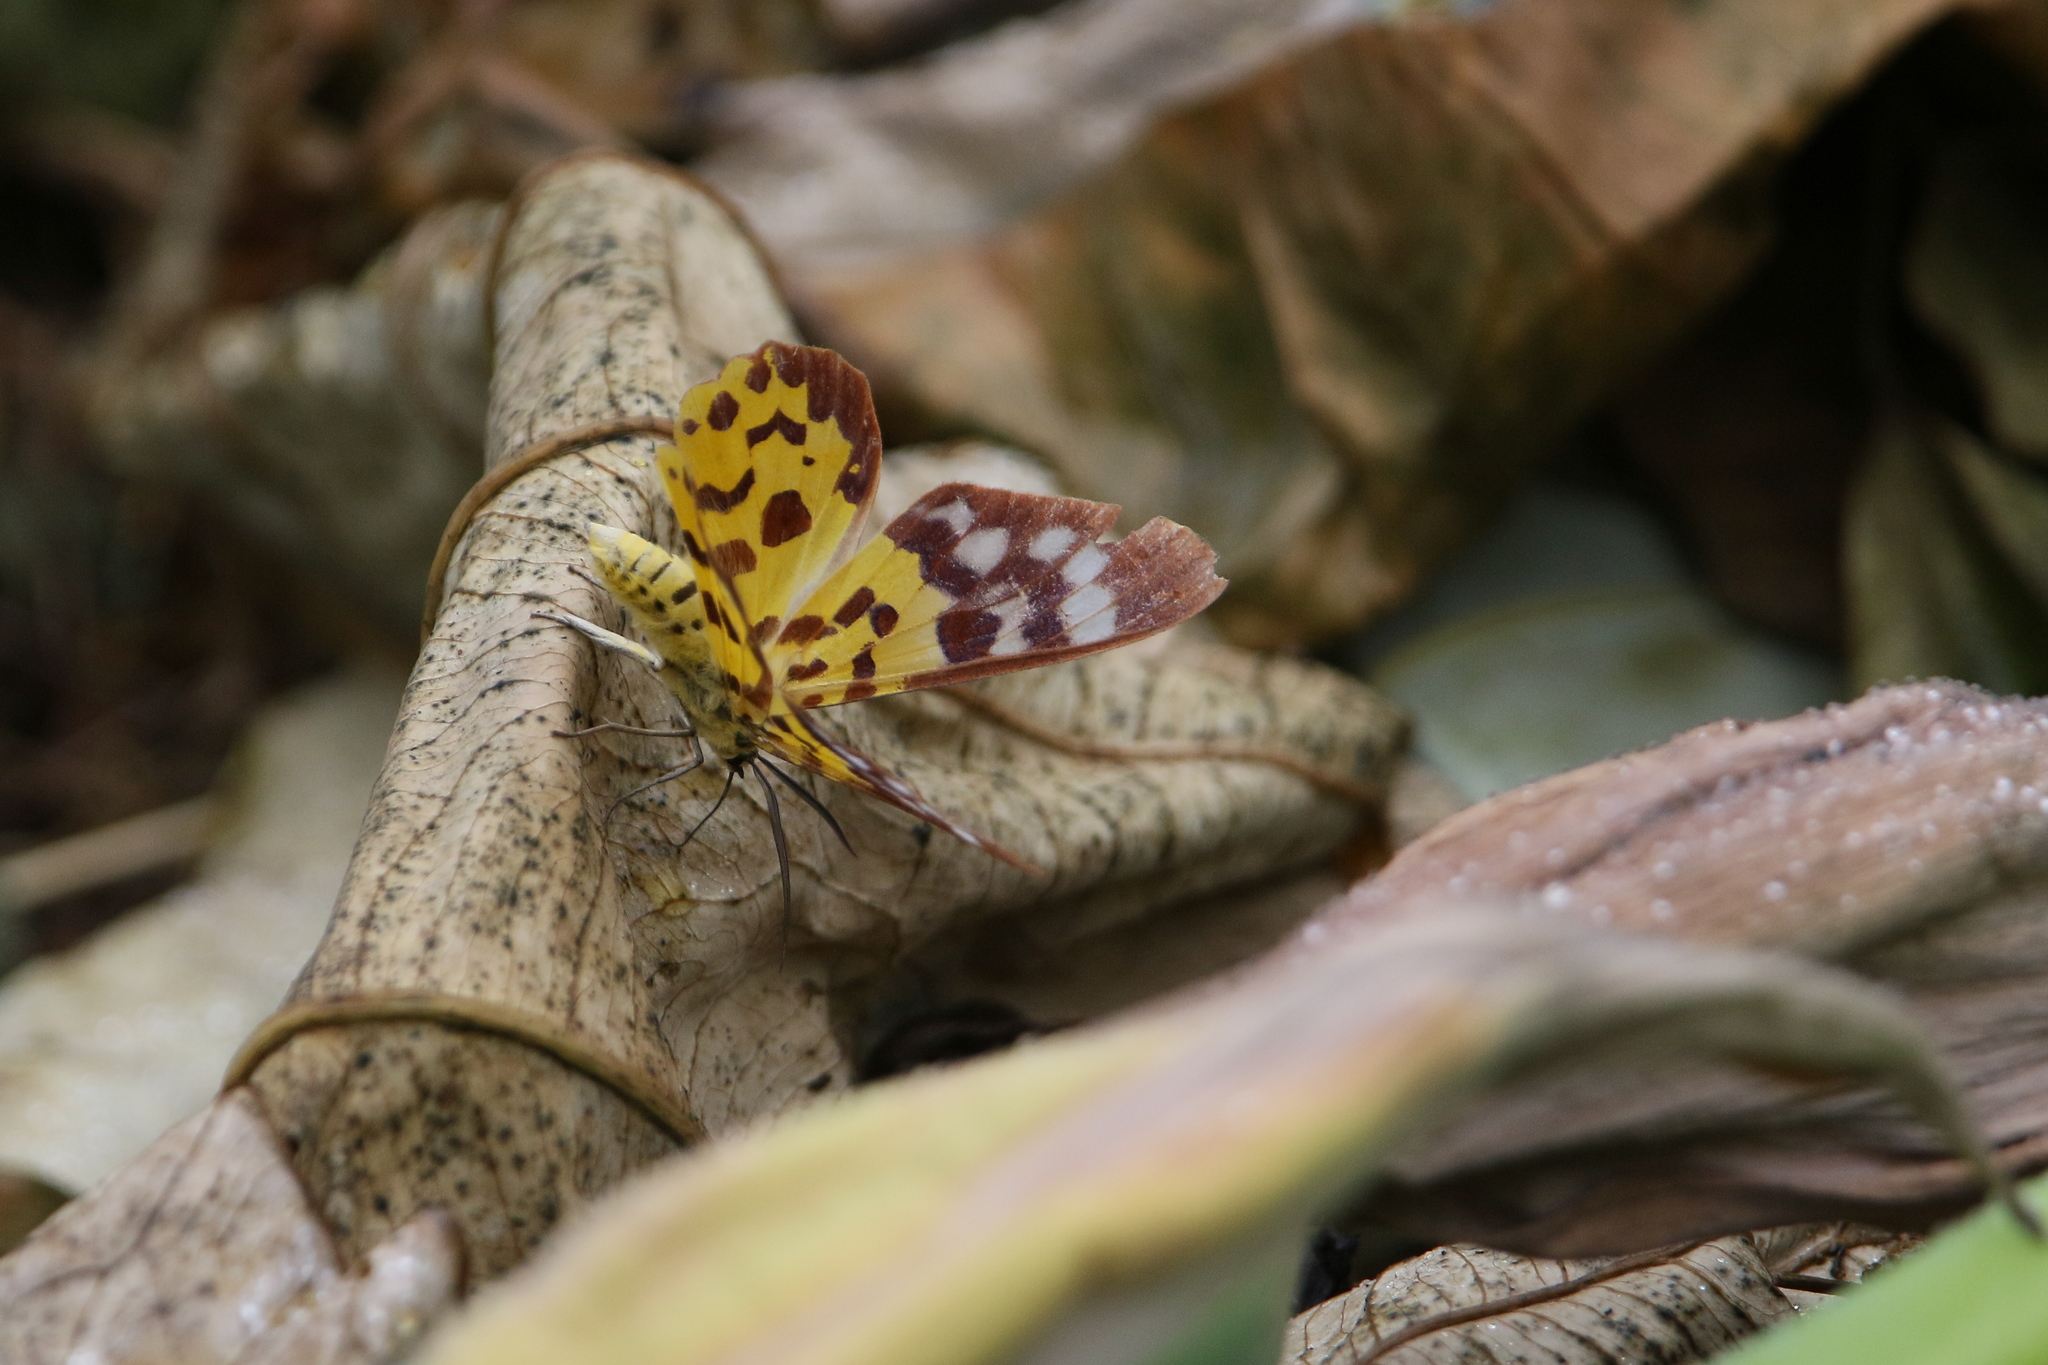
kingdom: Animalia
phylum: Arthropoda
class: Insecta
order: Lepidoptera
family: Geometridae
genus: Dysphania
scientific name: Dysphania militaris
